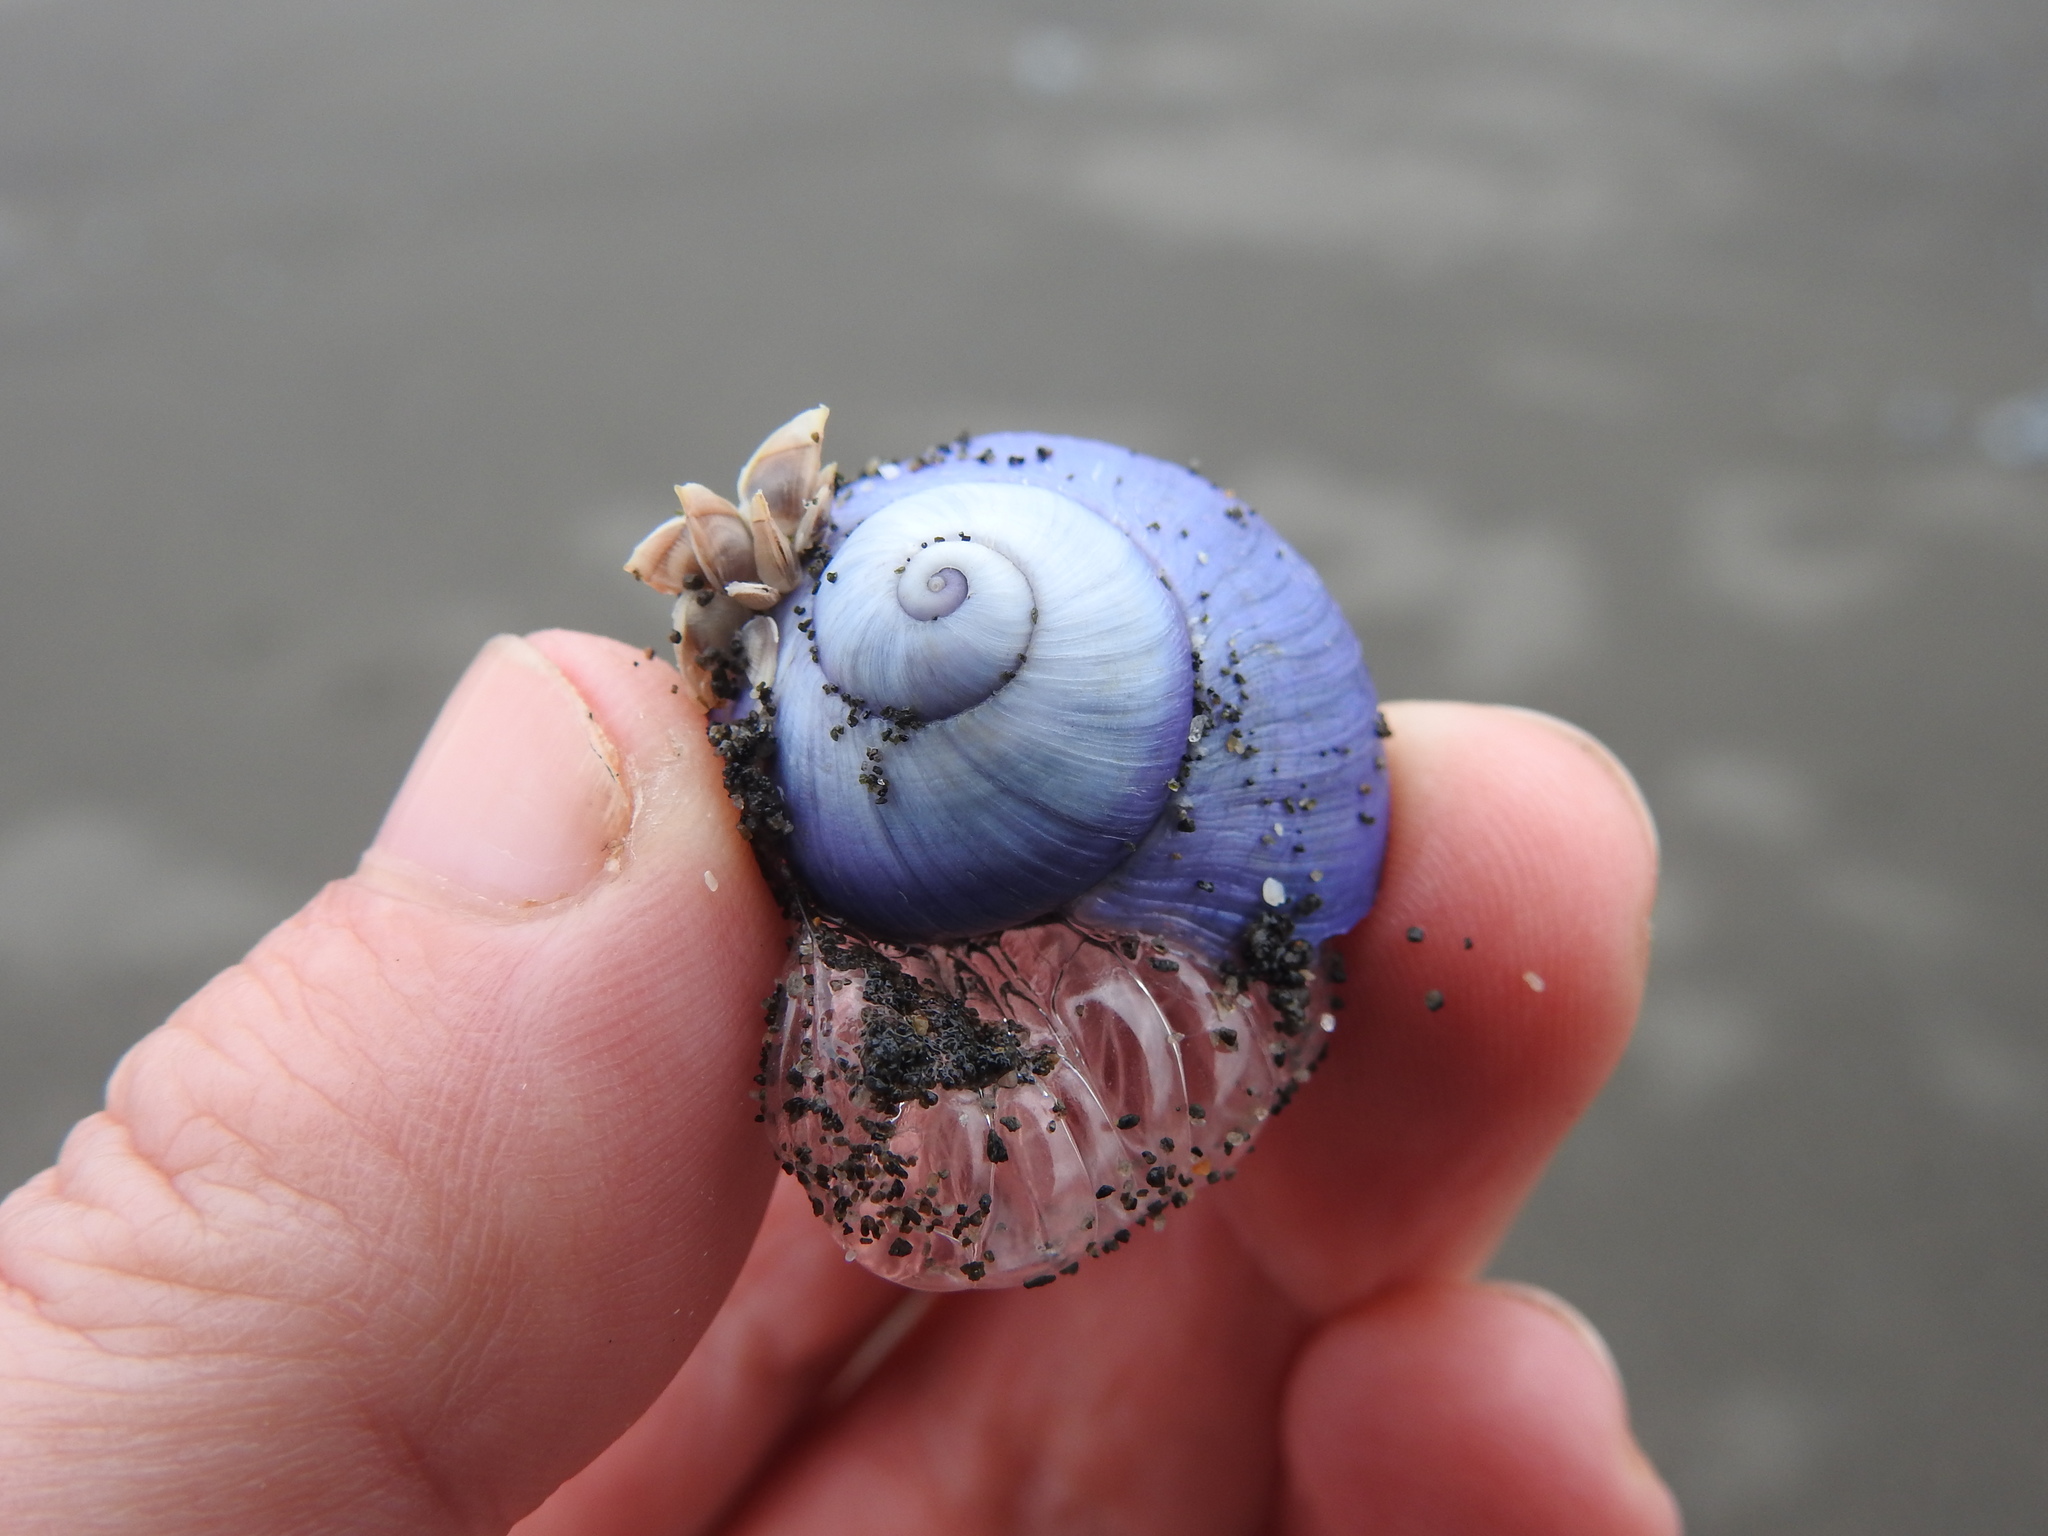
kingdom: Animalia
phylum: Mollusca
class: Gastropoda
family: Epitoniidae
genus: Janthina
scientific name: Janthina janthina
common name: Common janthina
